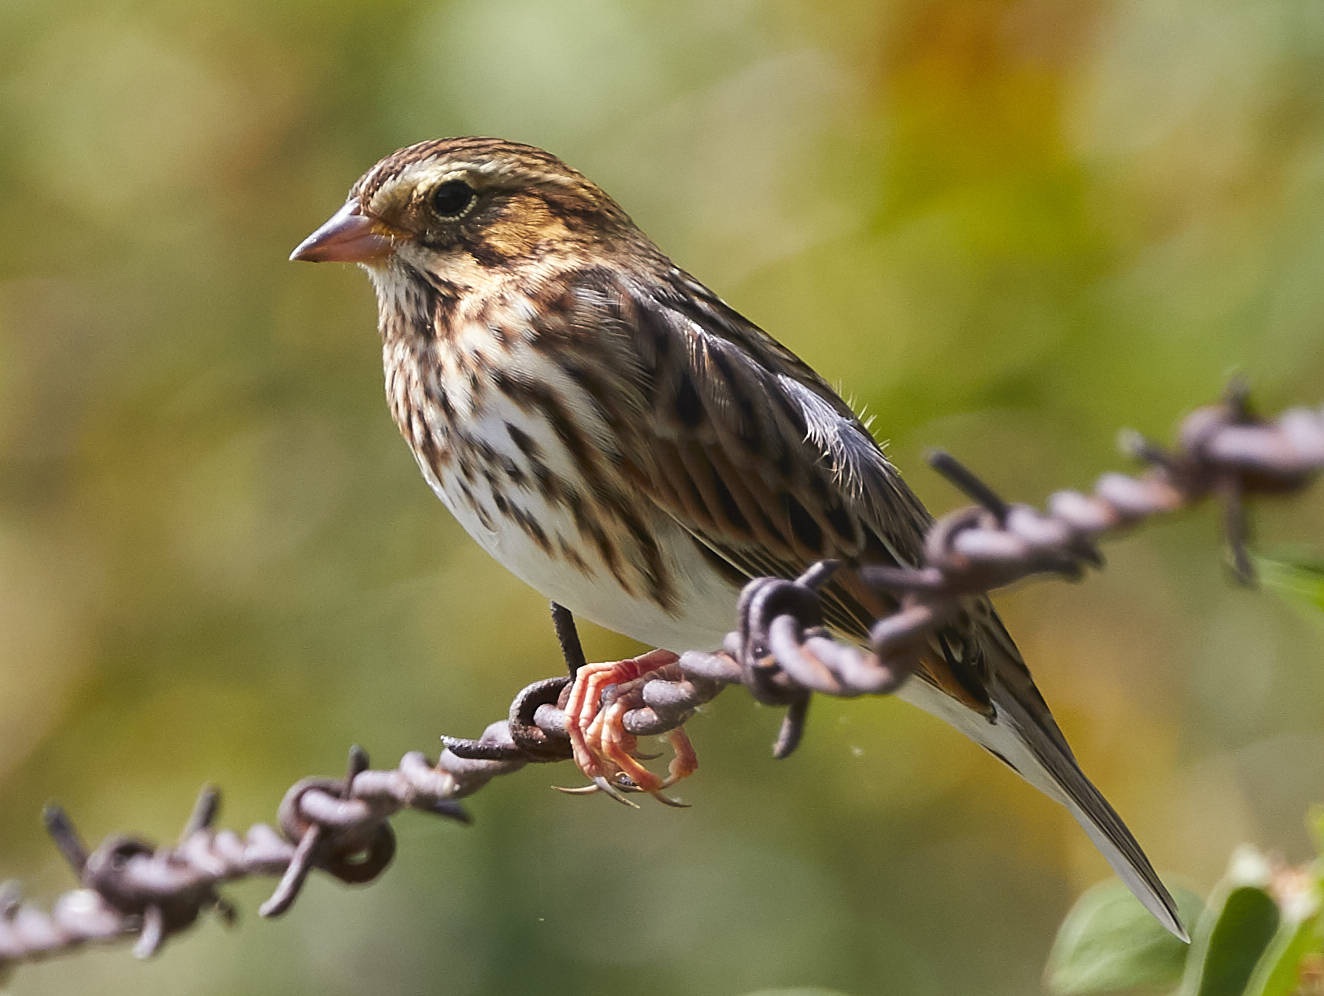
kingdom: Animalia
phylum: Chordata
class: Aves
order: Passeriformes
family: Passerellidae
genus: Melospiza
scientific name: Melospiza melodia
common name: Song sparrow
